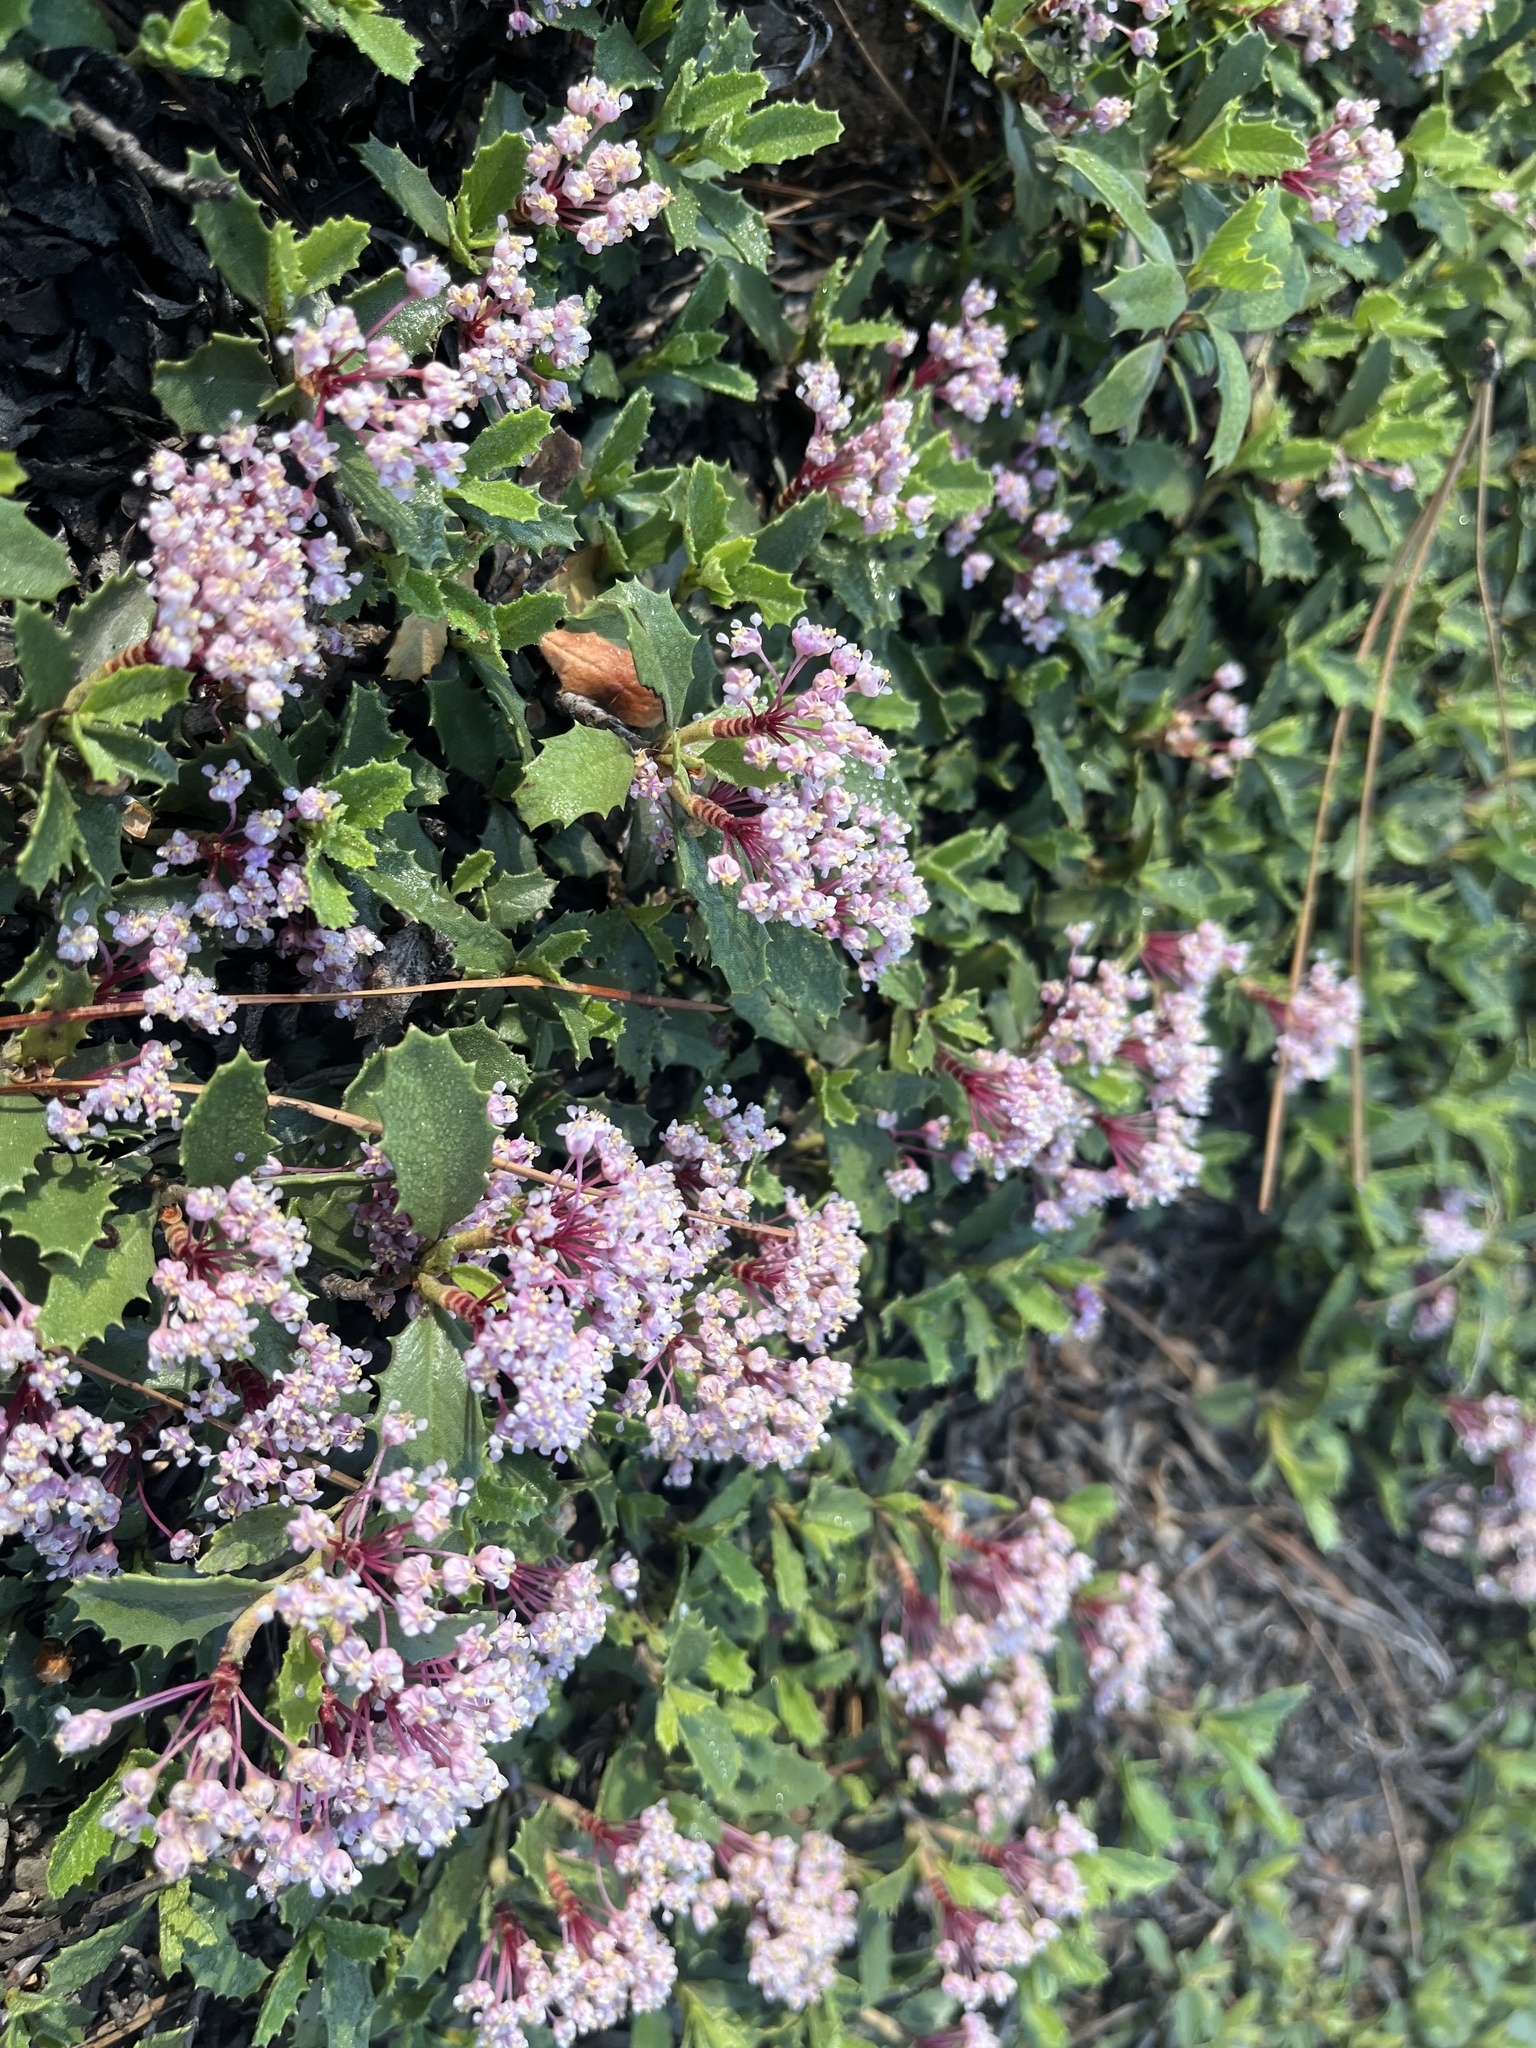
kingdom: Plantae
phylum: Tracheophyta
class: Magnoliopsida
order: Rosales
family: Rhamnaceae
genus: Ceanothus
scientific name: Ceanothus prostratus
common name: Mahala-mat
